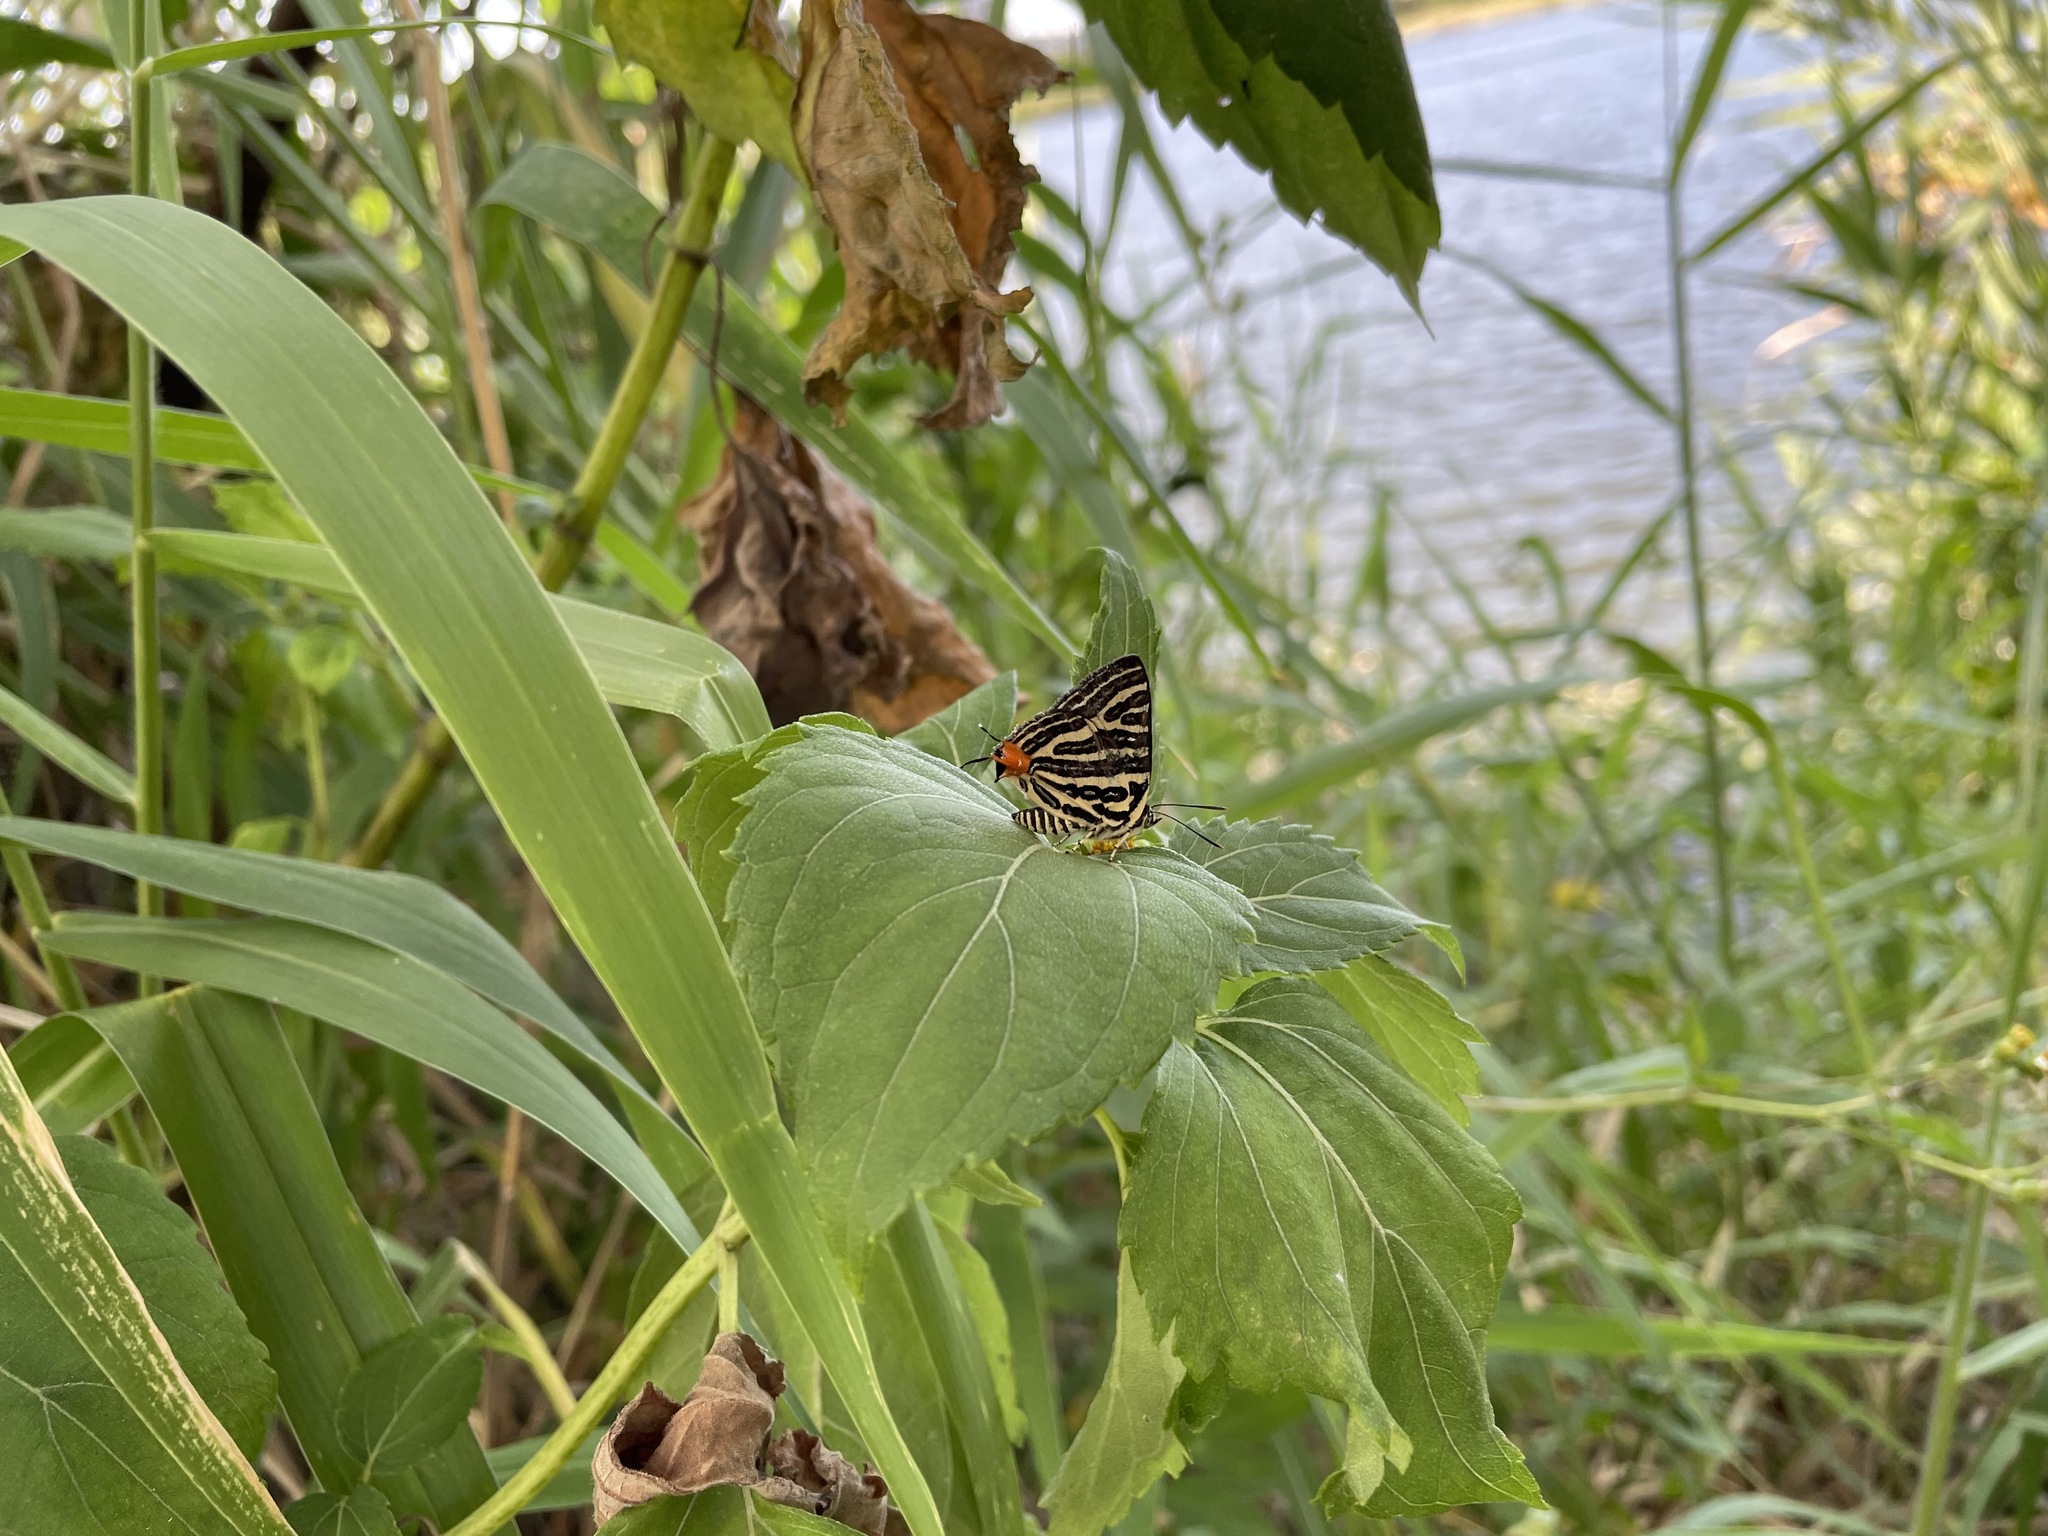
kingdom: Animalia
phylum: Arthropoda
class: Insecta
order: Lepidoptera
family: Lycaenidae
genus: Cigaritis
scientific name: Cigaritis lohita
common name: Long-banded silverline
